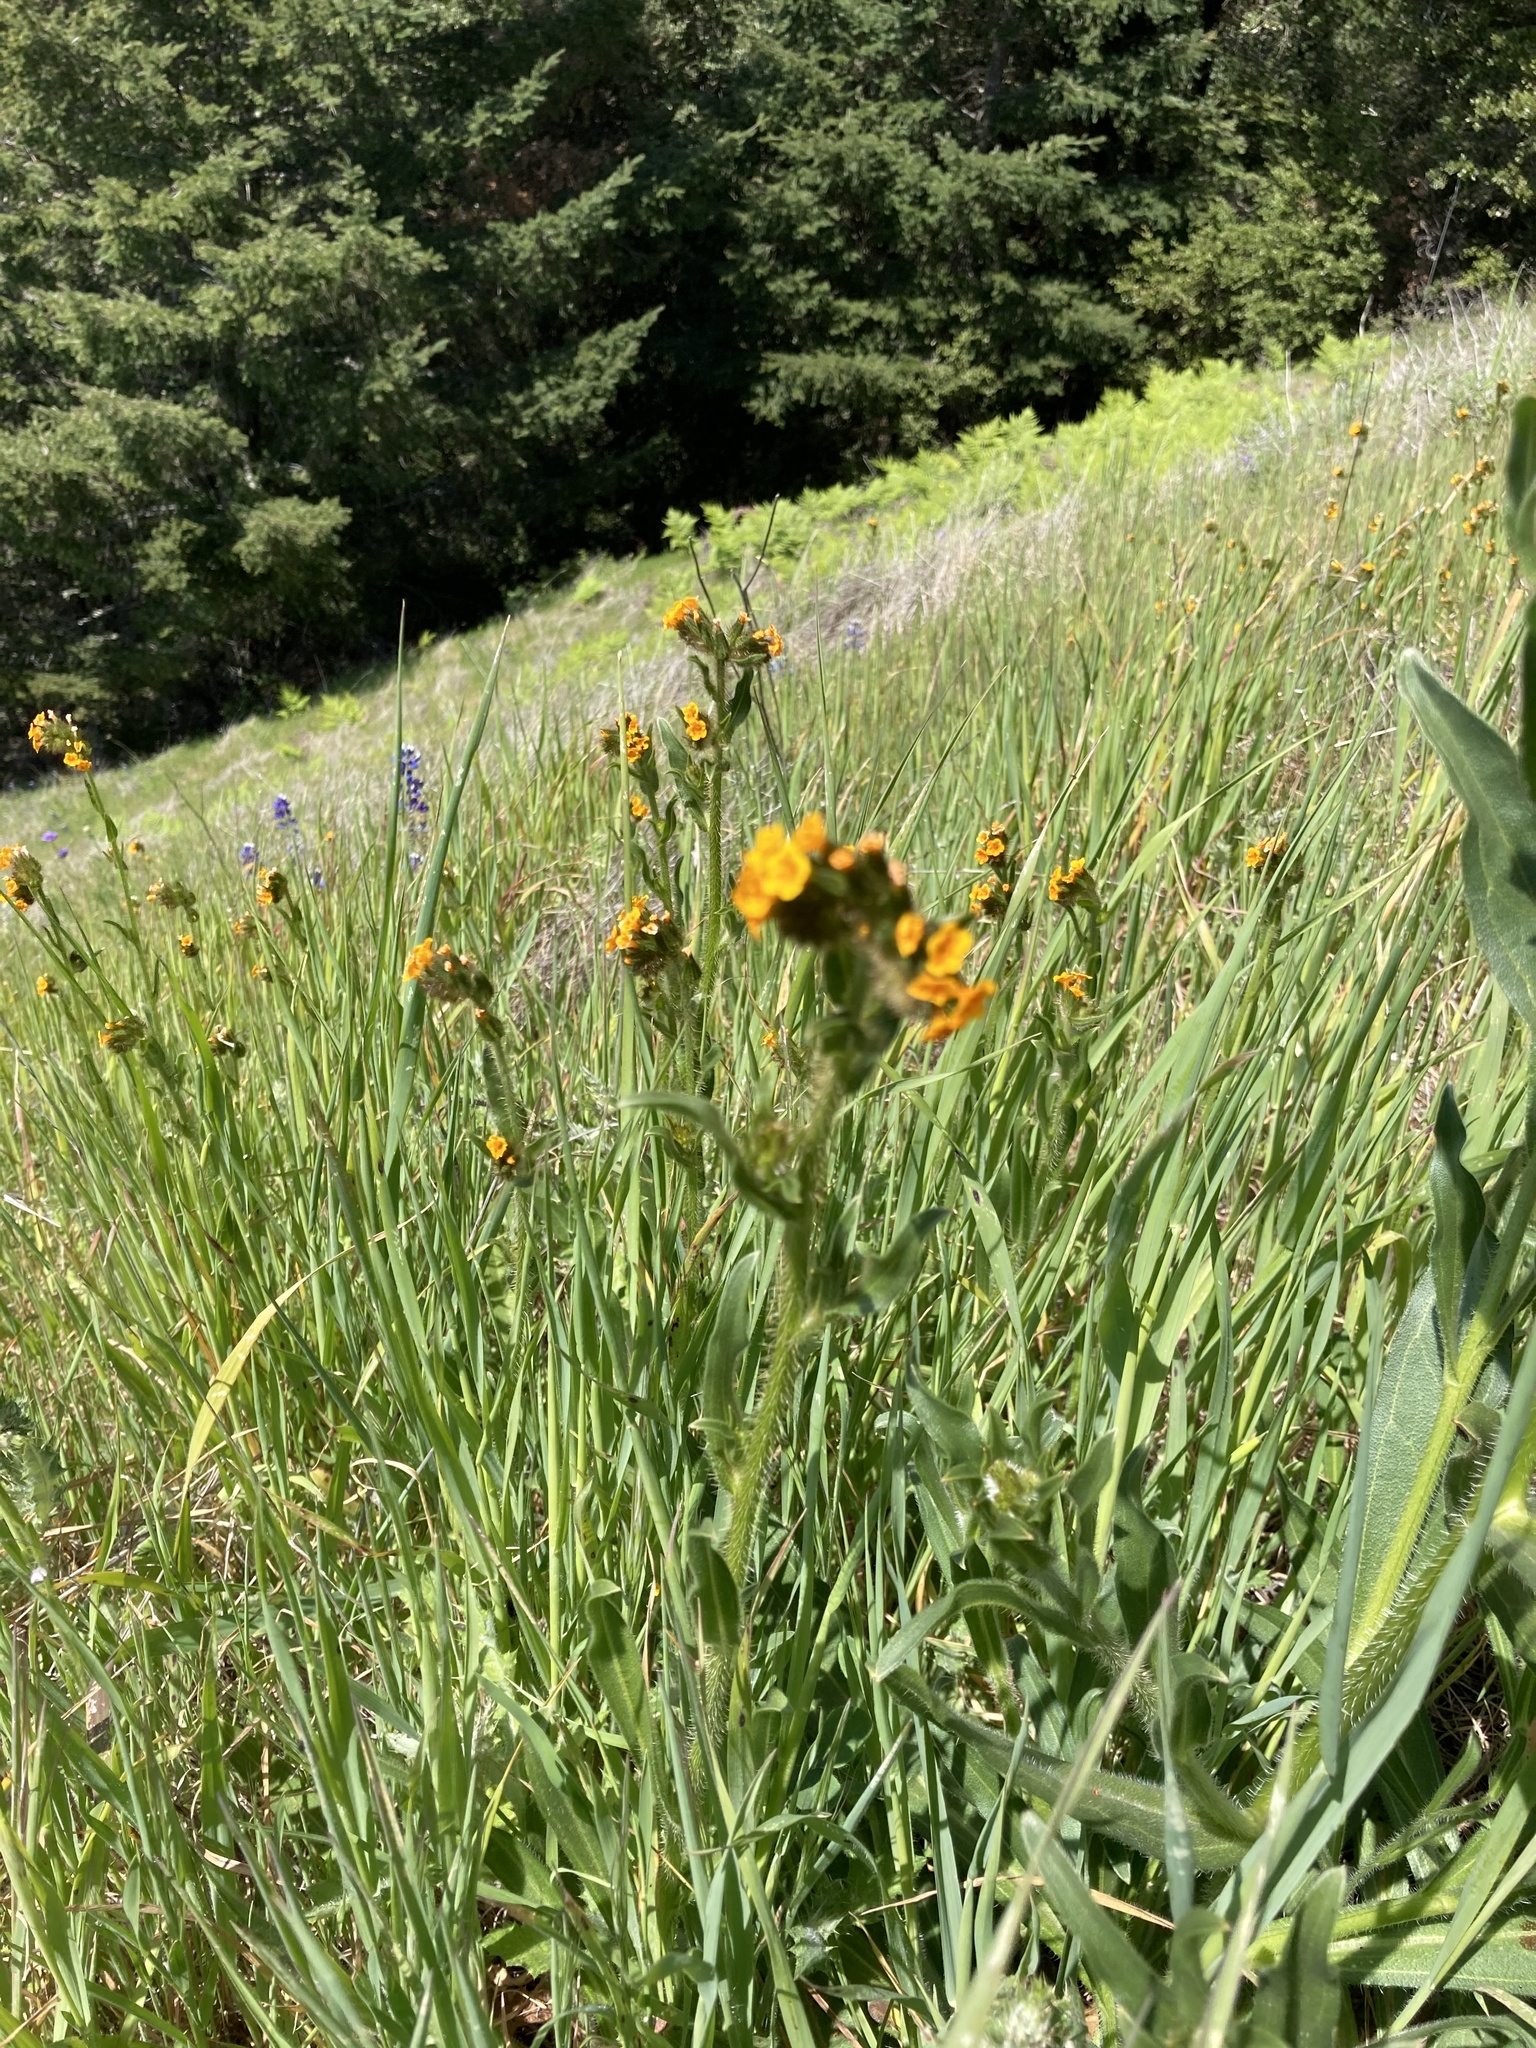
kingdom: Plantae
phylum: Tracheophyta
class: Magnoliopsida
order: Boraginales
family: Boraginaceae
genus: Amsinckia
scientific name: Amsinckia menziesii
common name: Menzies' fiddleneck
